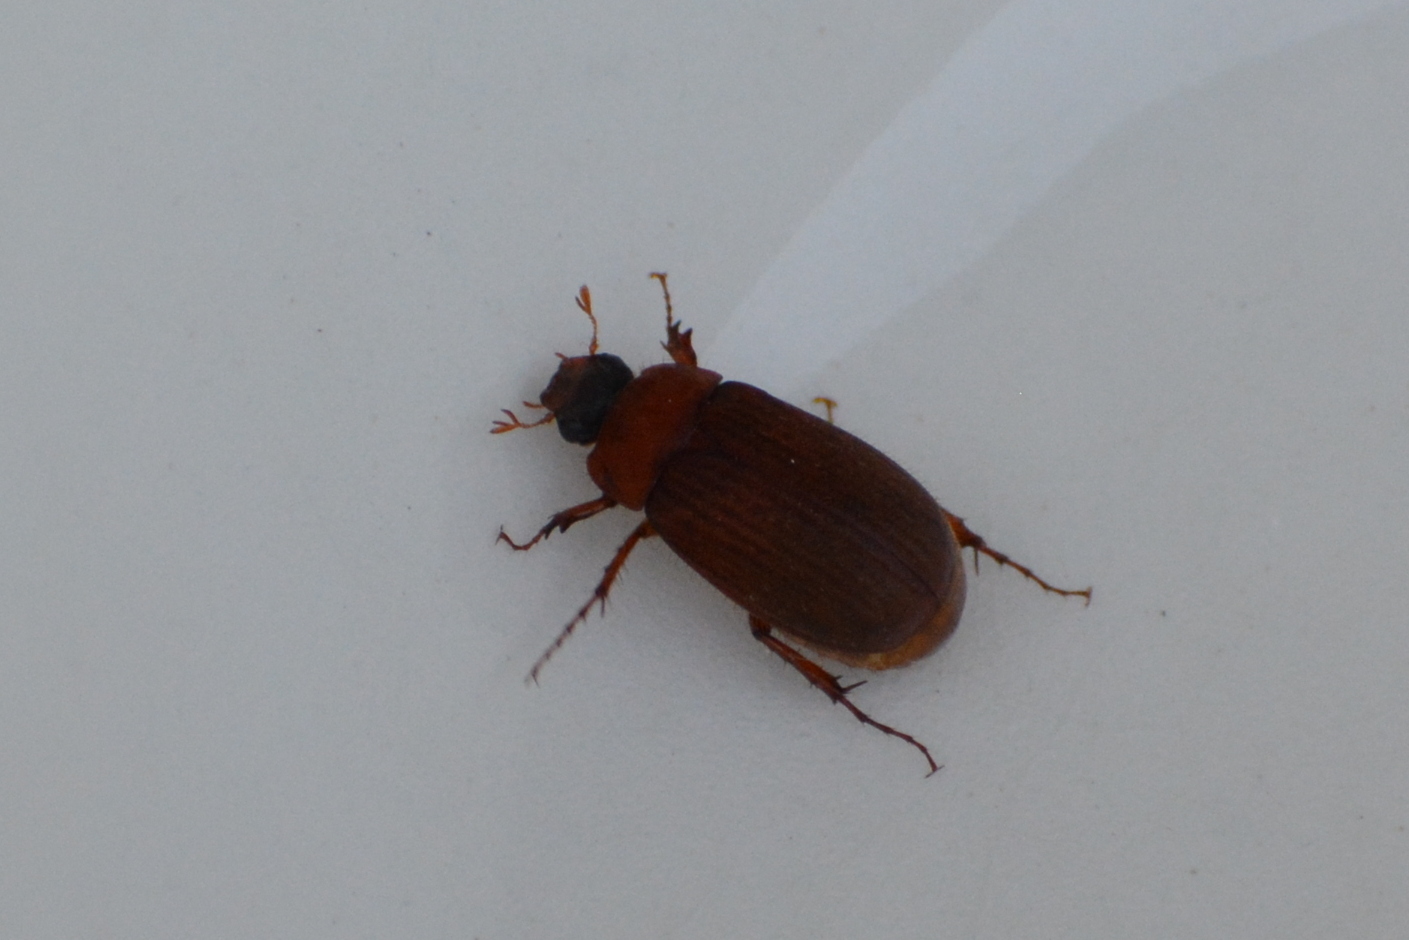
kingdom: Animalia
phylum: Arthropoda
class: Insecta
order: Coleoptera
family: Scarabaeidae
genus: Serica
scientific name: Serica brunnea
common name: Brown chafer
